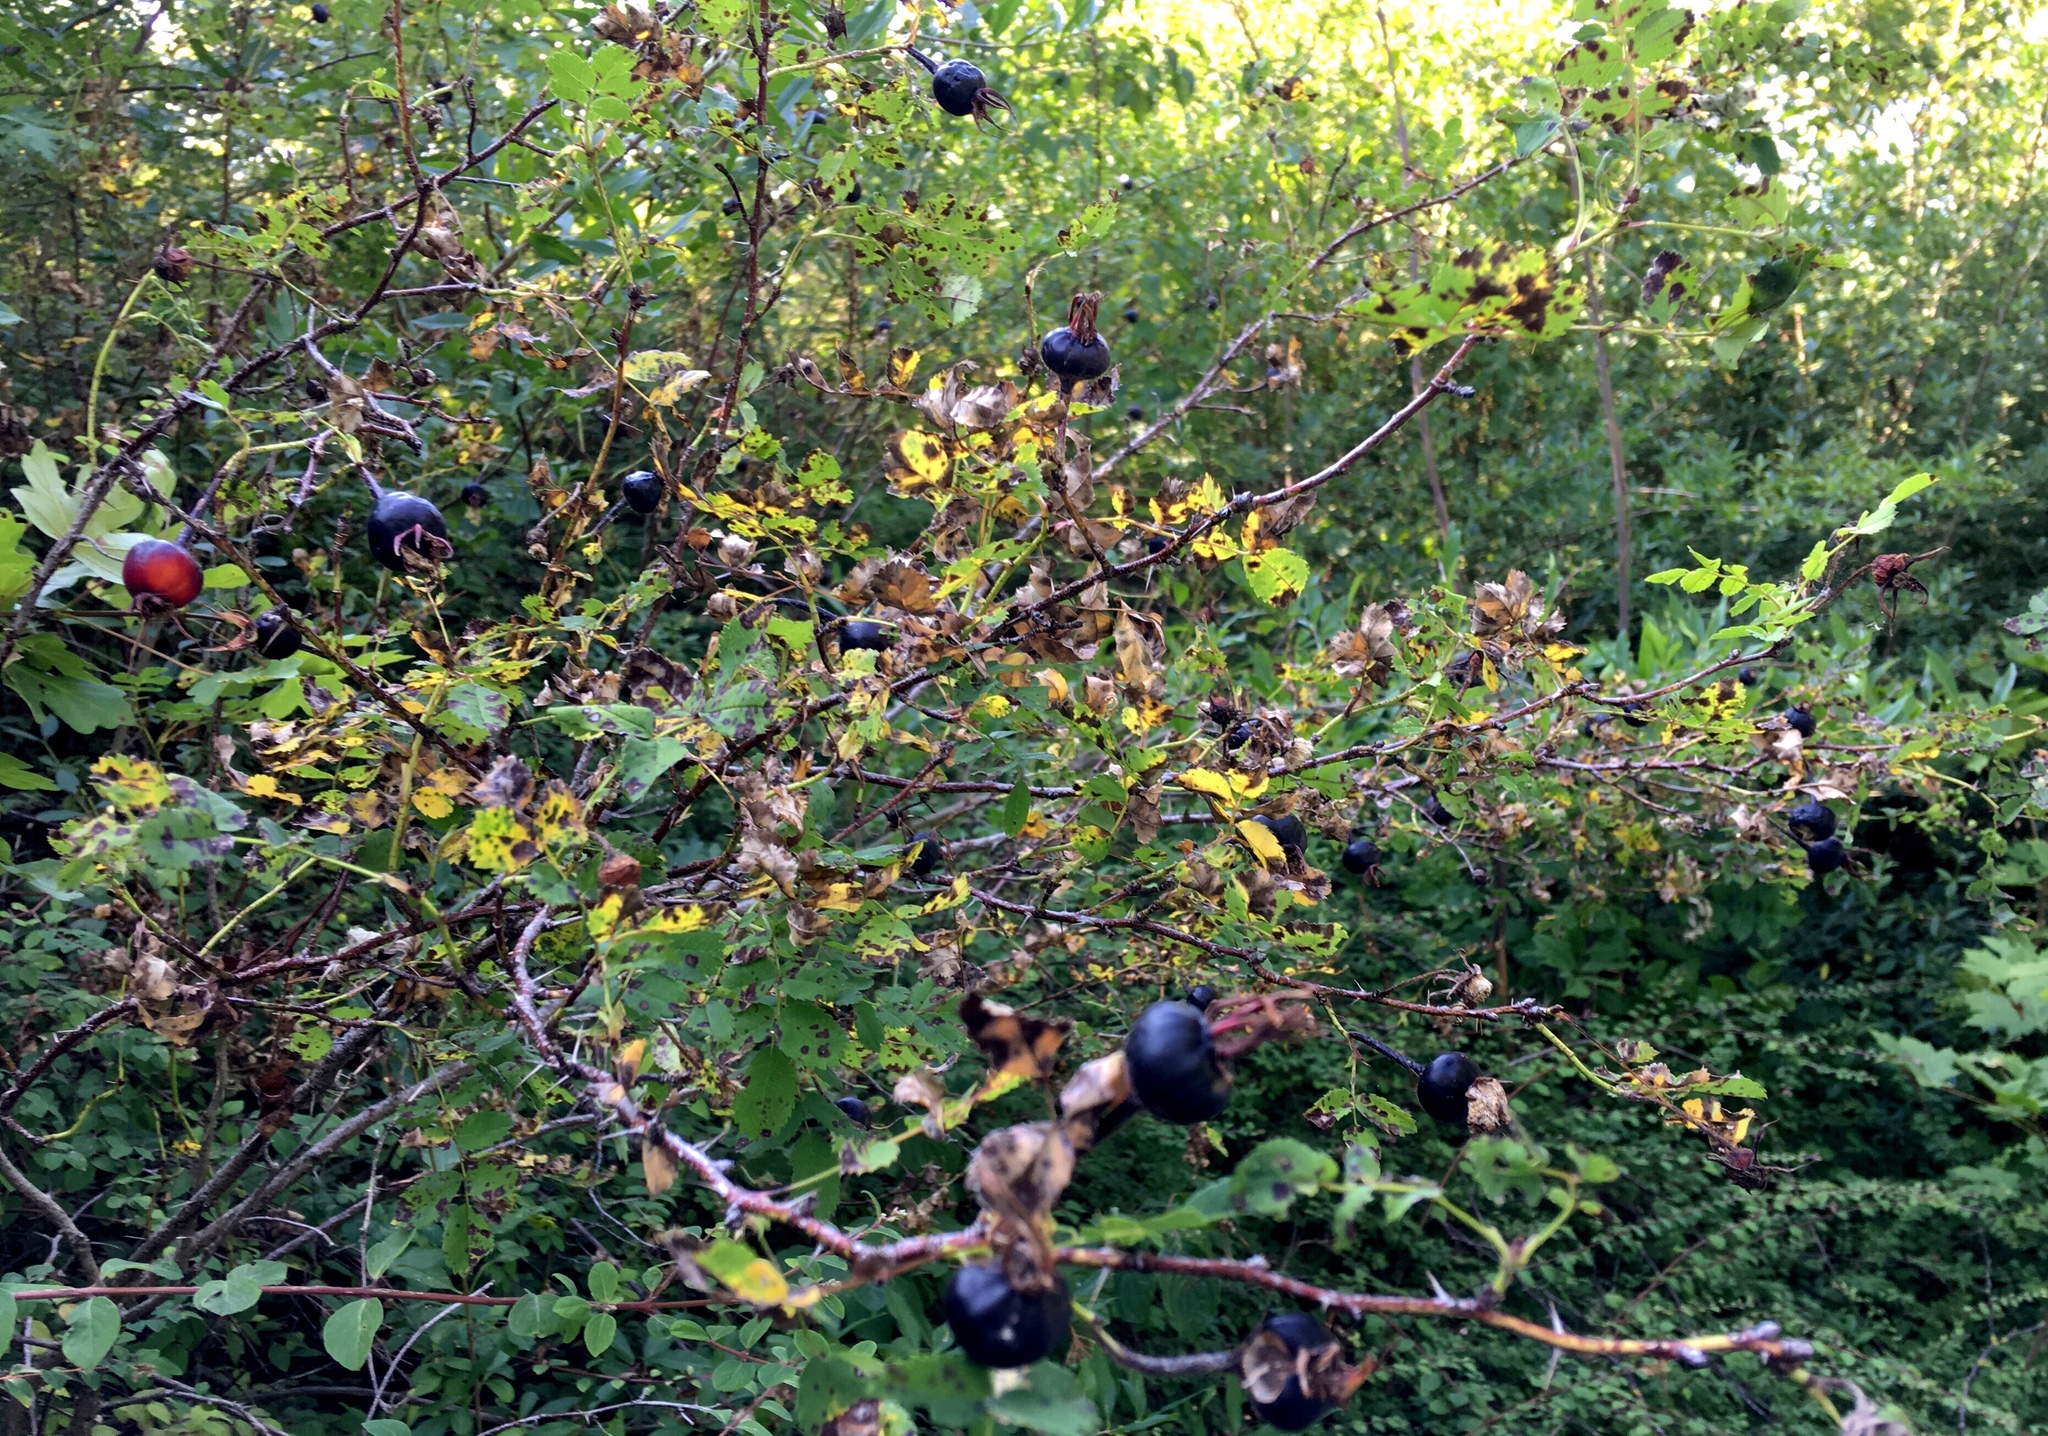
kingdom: Plantae
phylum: Tracheophyta
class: Magnoliopsida
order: Rosales
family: Rosaceae
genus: Rosa
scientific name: Rosa spinosissima
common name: Burnet rose
